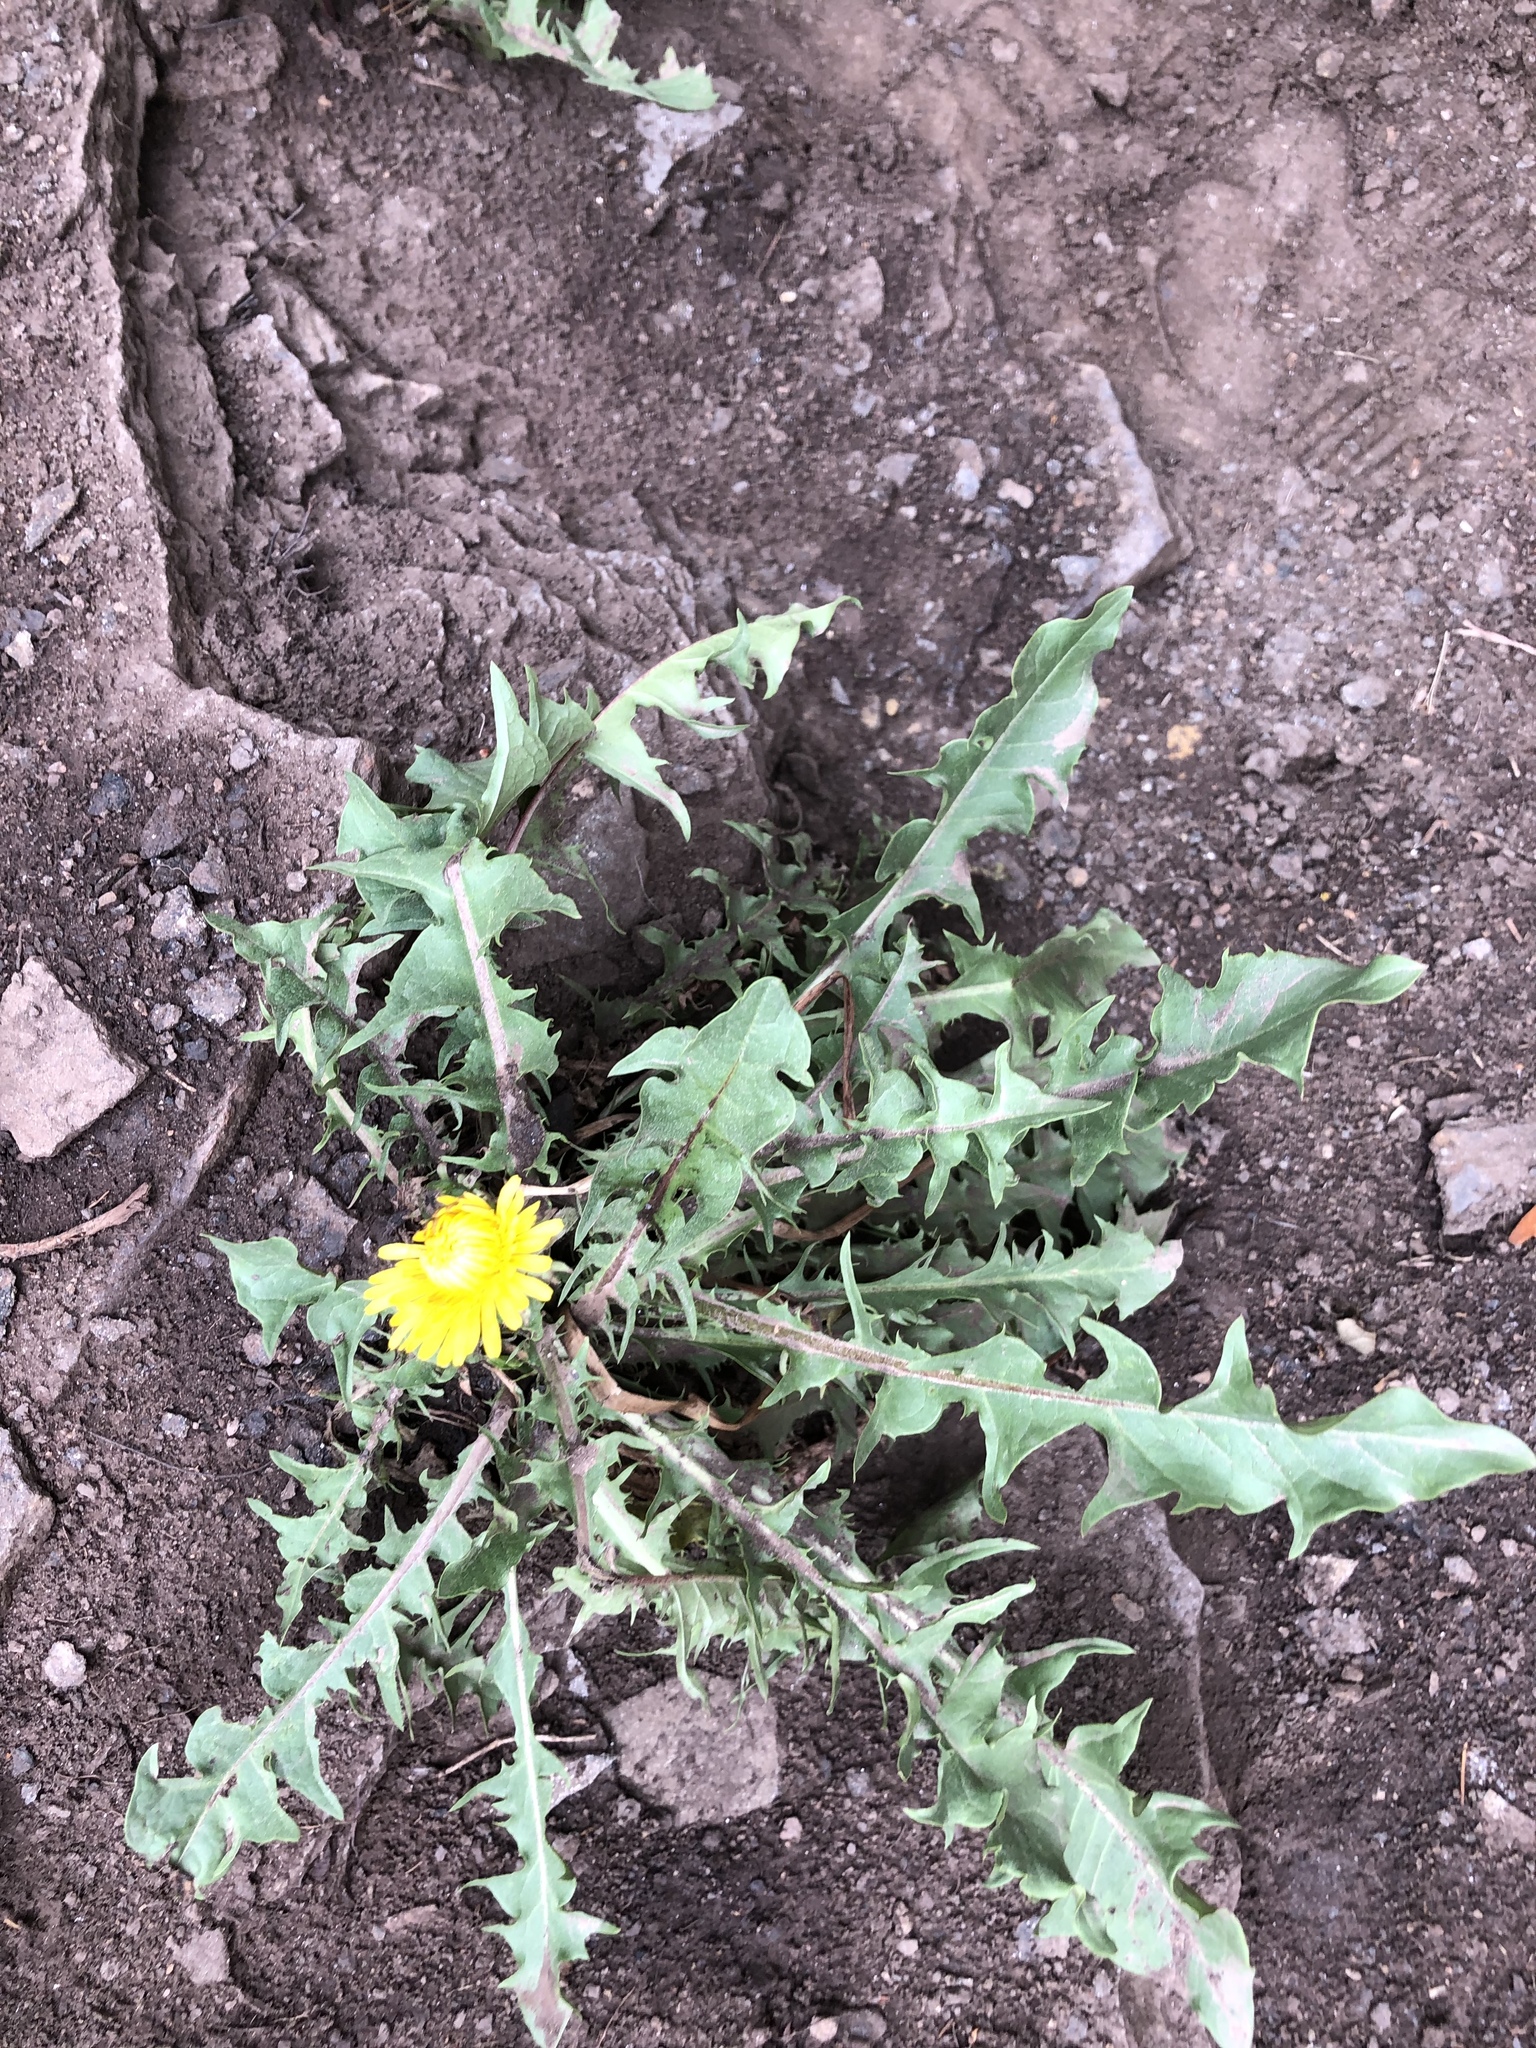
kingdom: Plantae
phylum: Tracheophyta
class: Magnoliopsida
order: Asterales
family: Asteraceae
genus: Taraxacum
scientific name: Taraxacum officinale
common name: Common dandelion
